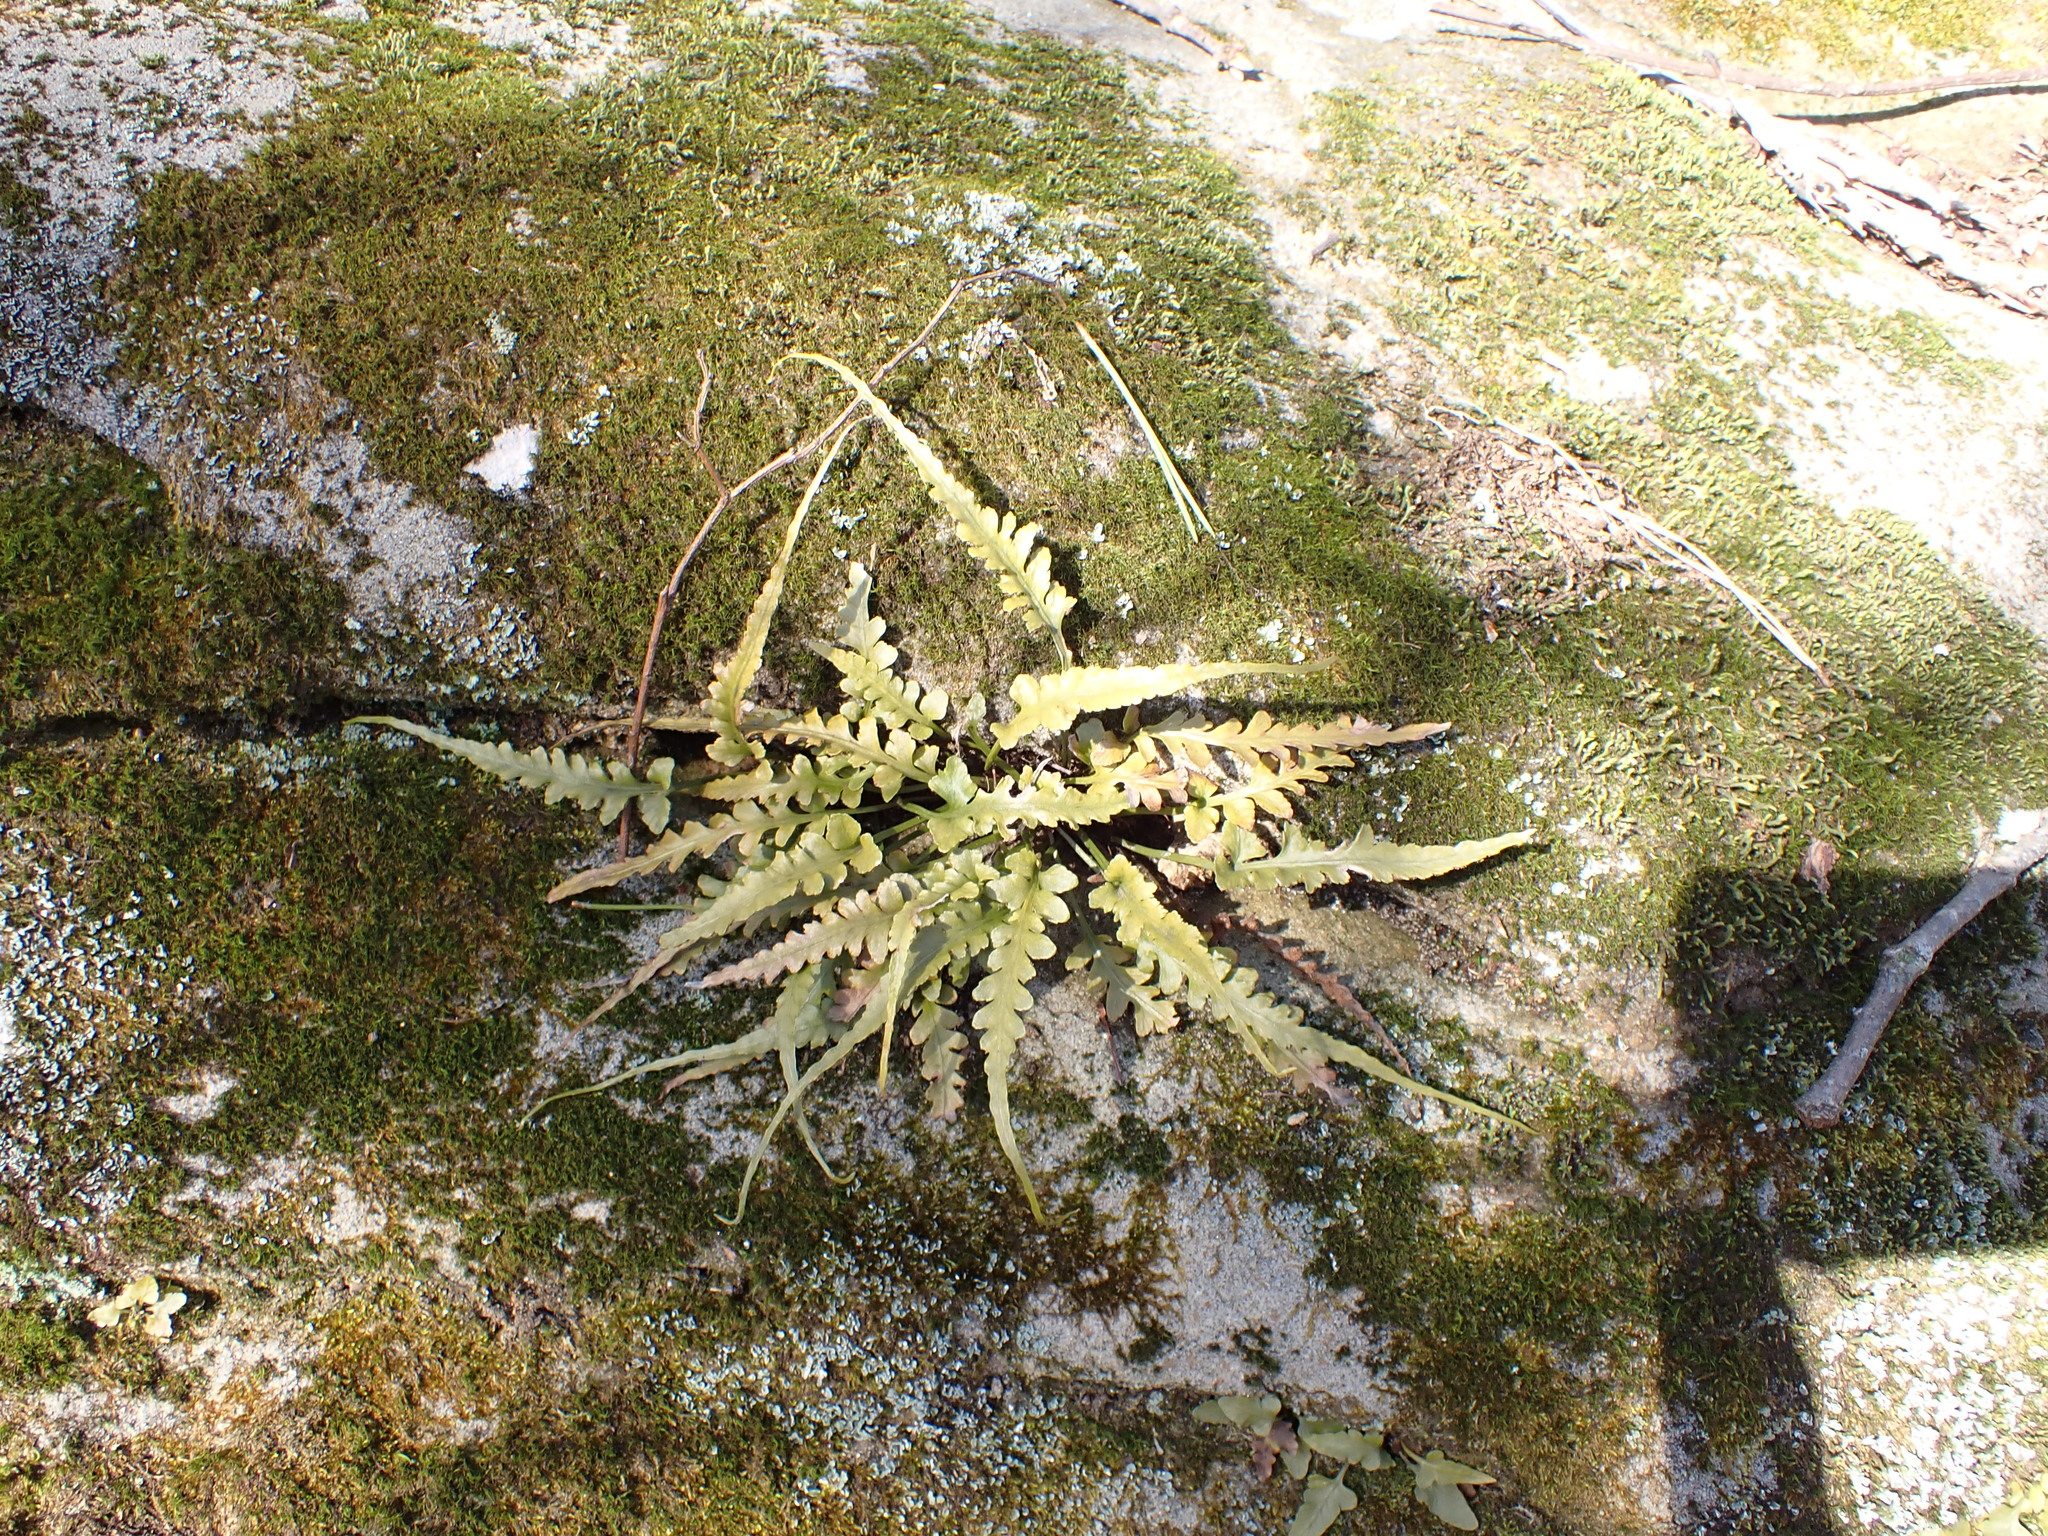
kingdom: Plantae
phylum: Tracheophyta
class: Polypodiopsida
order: Polypodiales
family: Aspleniaceae
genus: Asplenium
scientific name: Asplenium pinnatifidum
